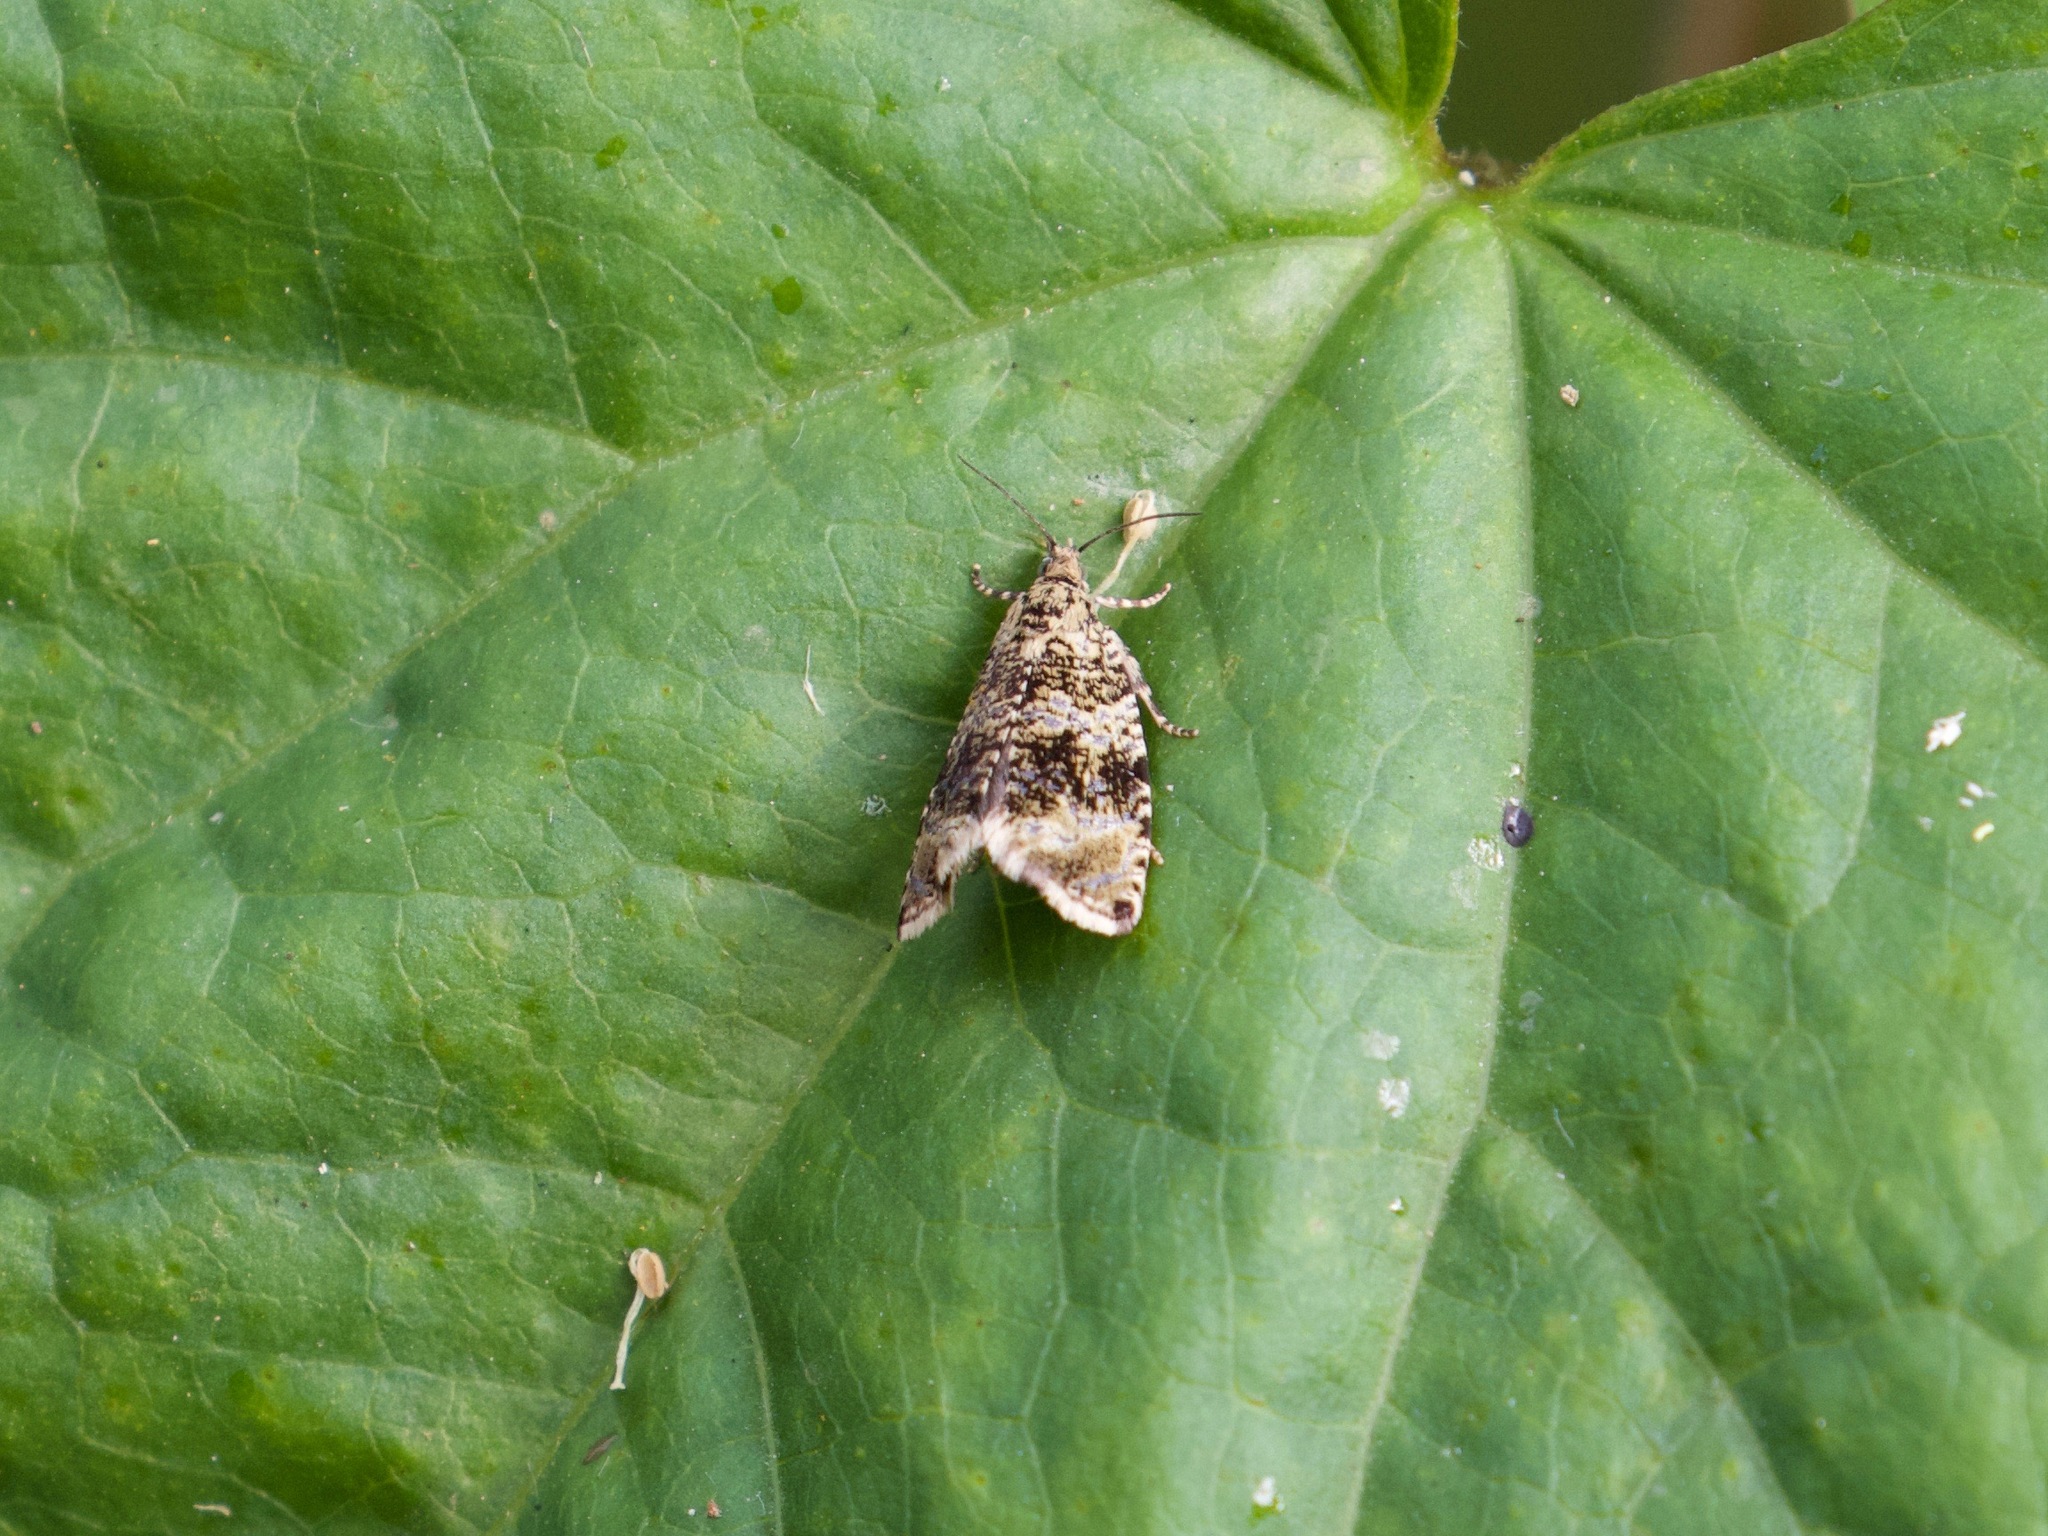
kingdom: Animalia
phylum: Arthropoda
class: Insecta
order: Lepidoptera
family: Tortricidae
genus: Syricoris
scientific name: Syricoris lacunana
